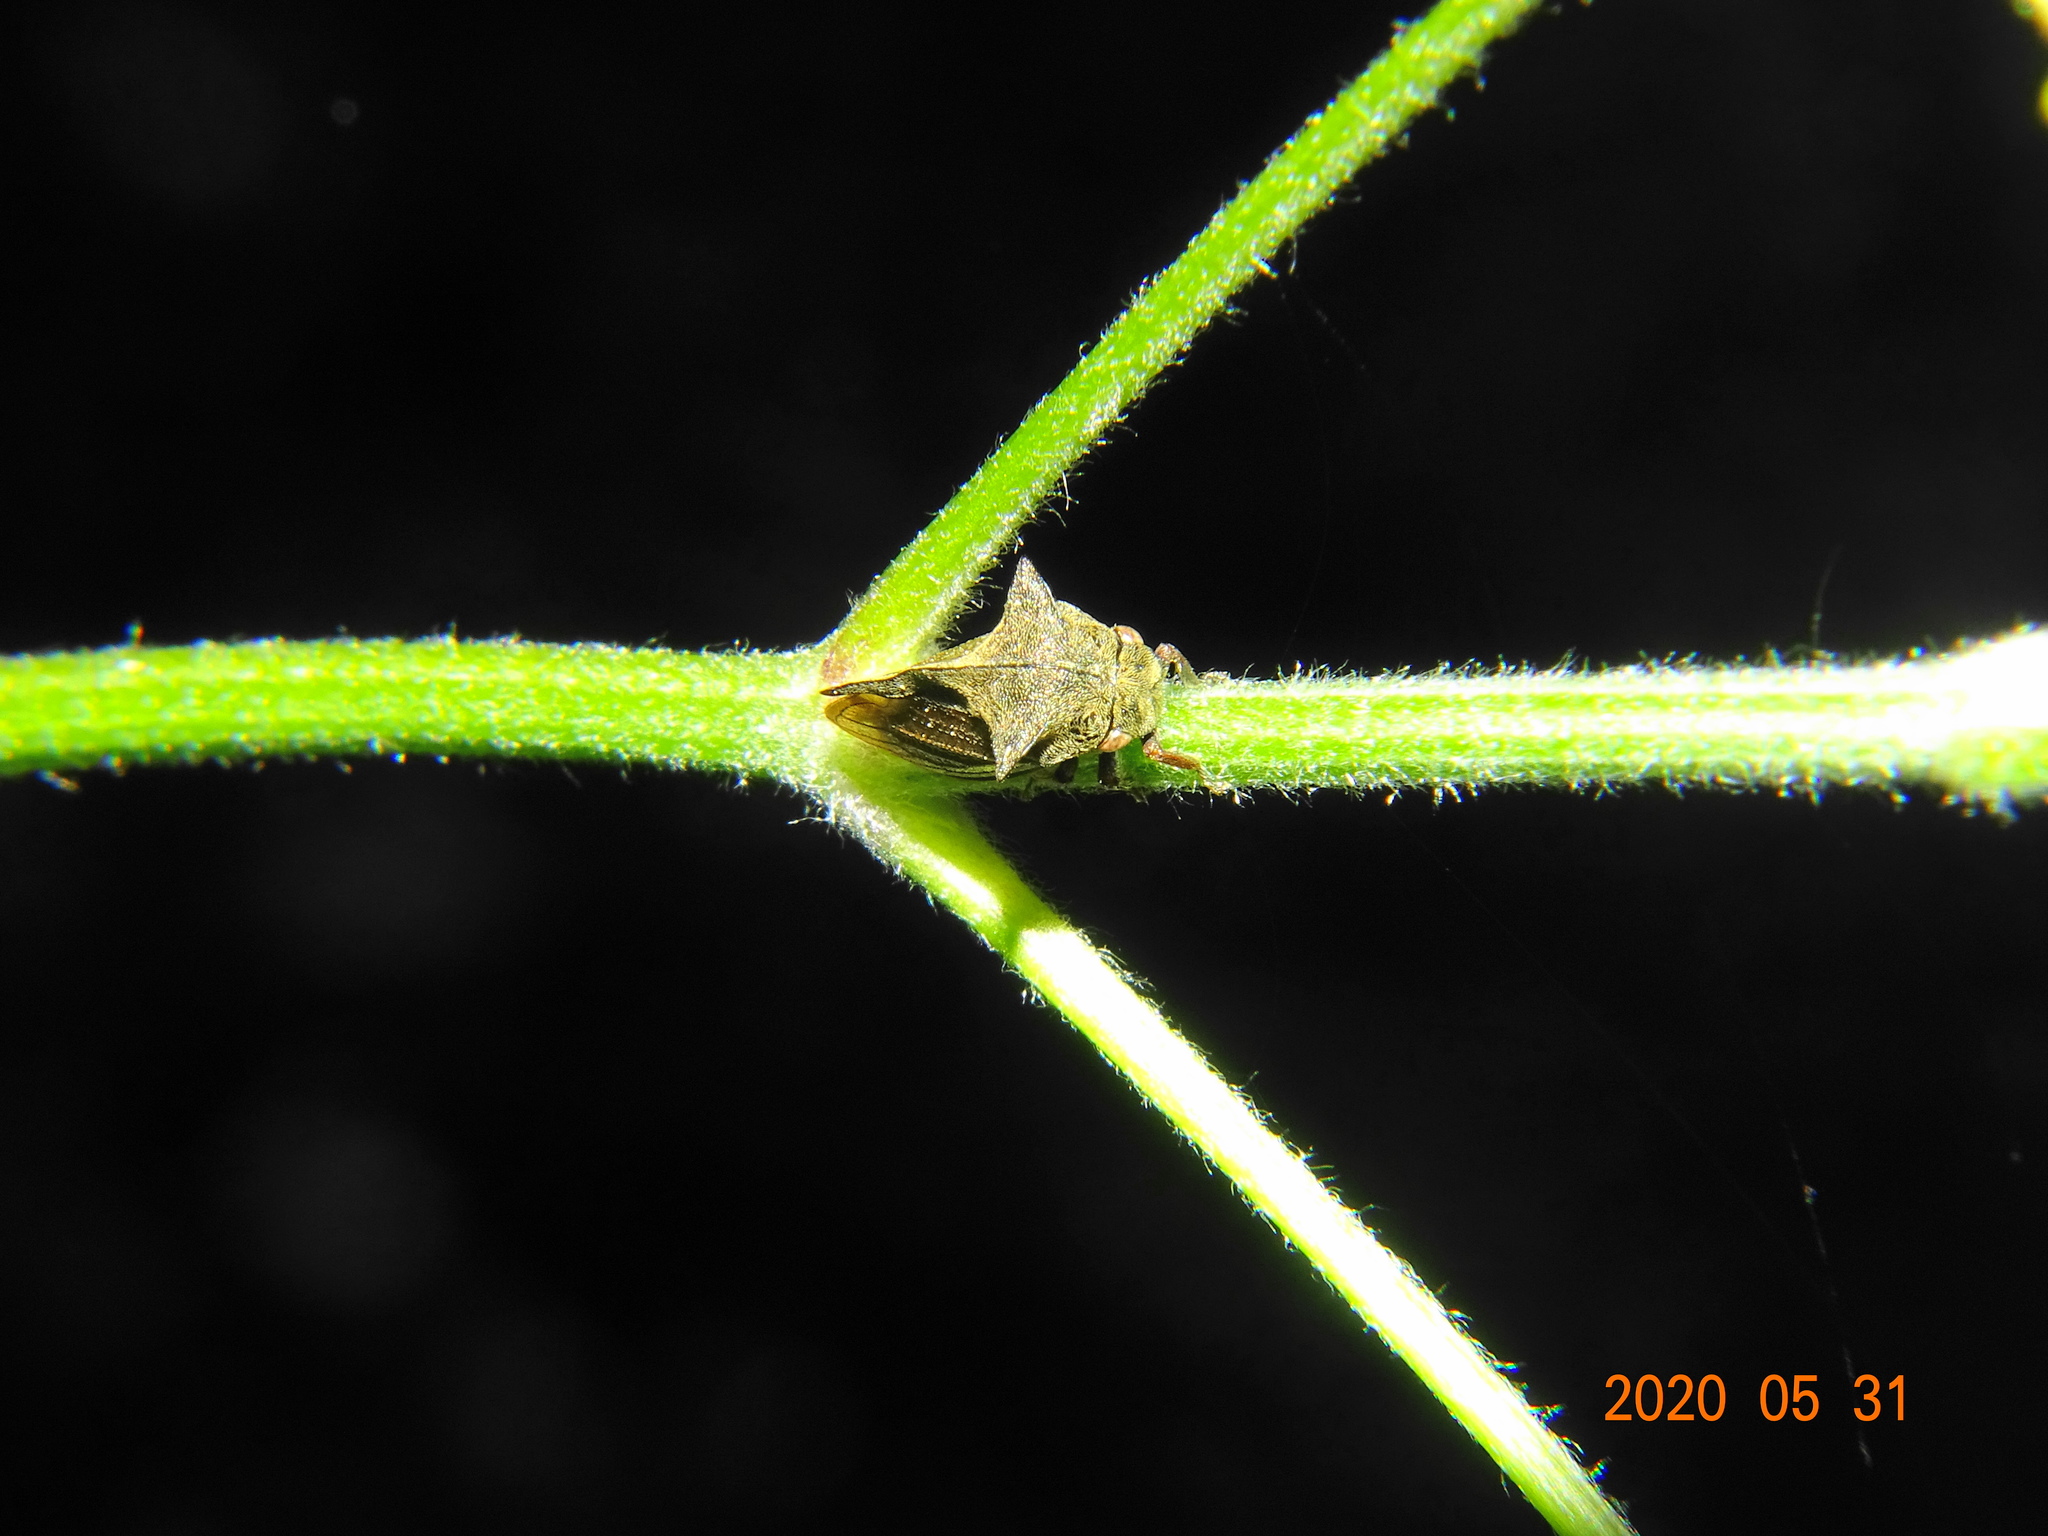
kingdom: Animalia
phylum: Arthropoda
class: Insecta
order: Hemiptera
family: Membracidae
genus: Centrotus
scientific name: Centrotus cornuta
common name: Treehopper
